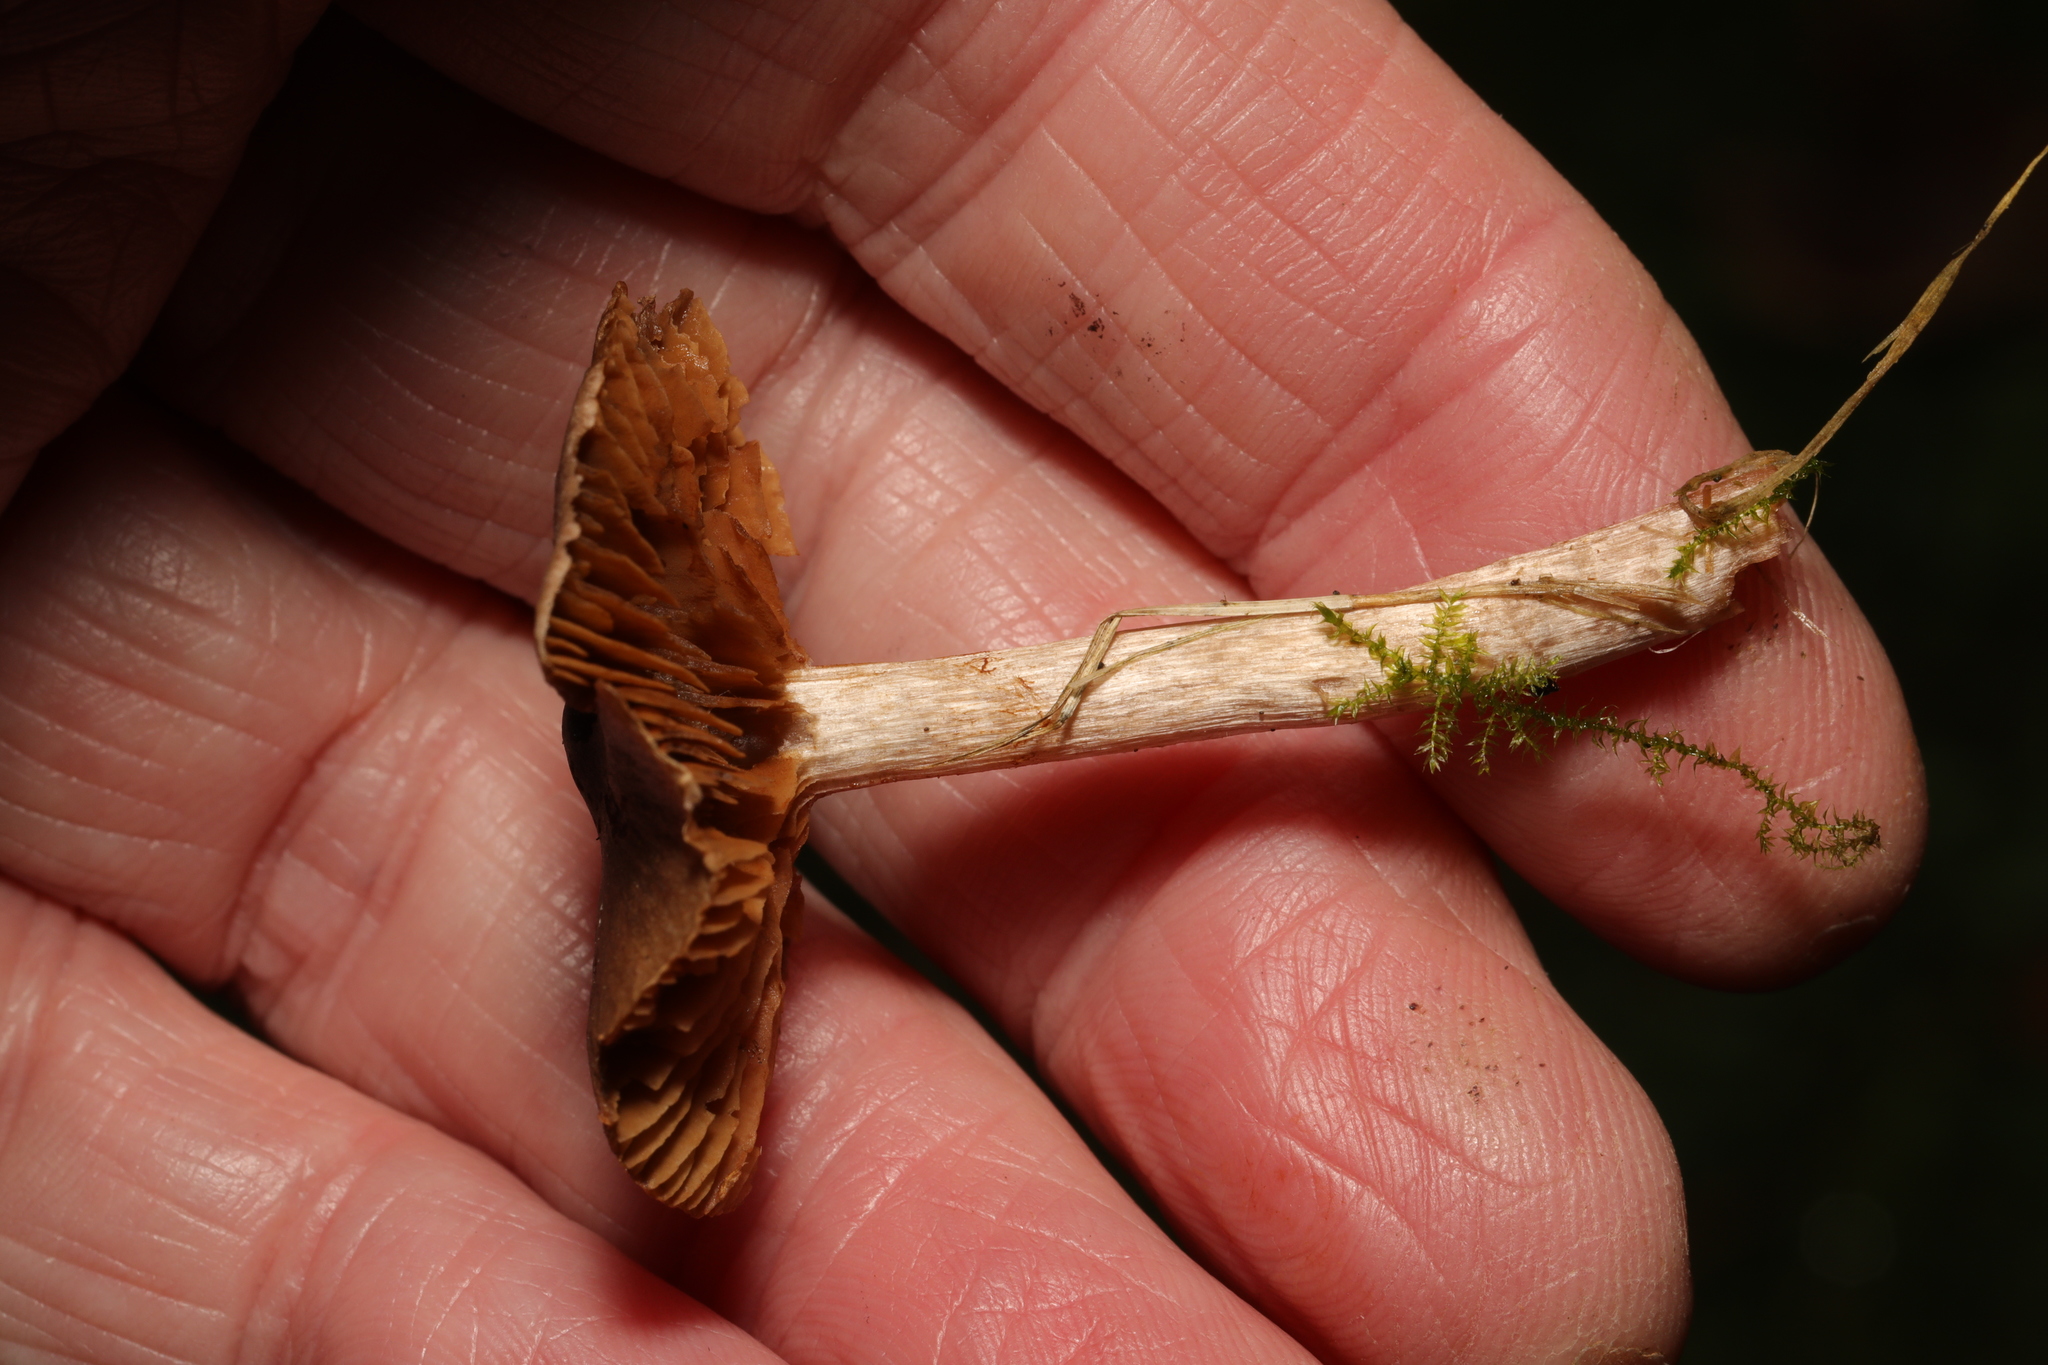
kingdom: Fungi
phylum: Basidiomycota
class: Agaricomycetes
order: Agaricales
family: Cortinariaceae
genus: Cortinarius
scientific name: Cortinarius
